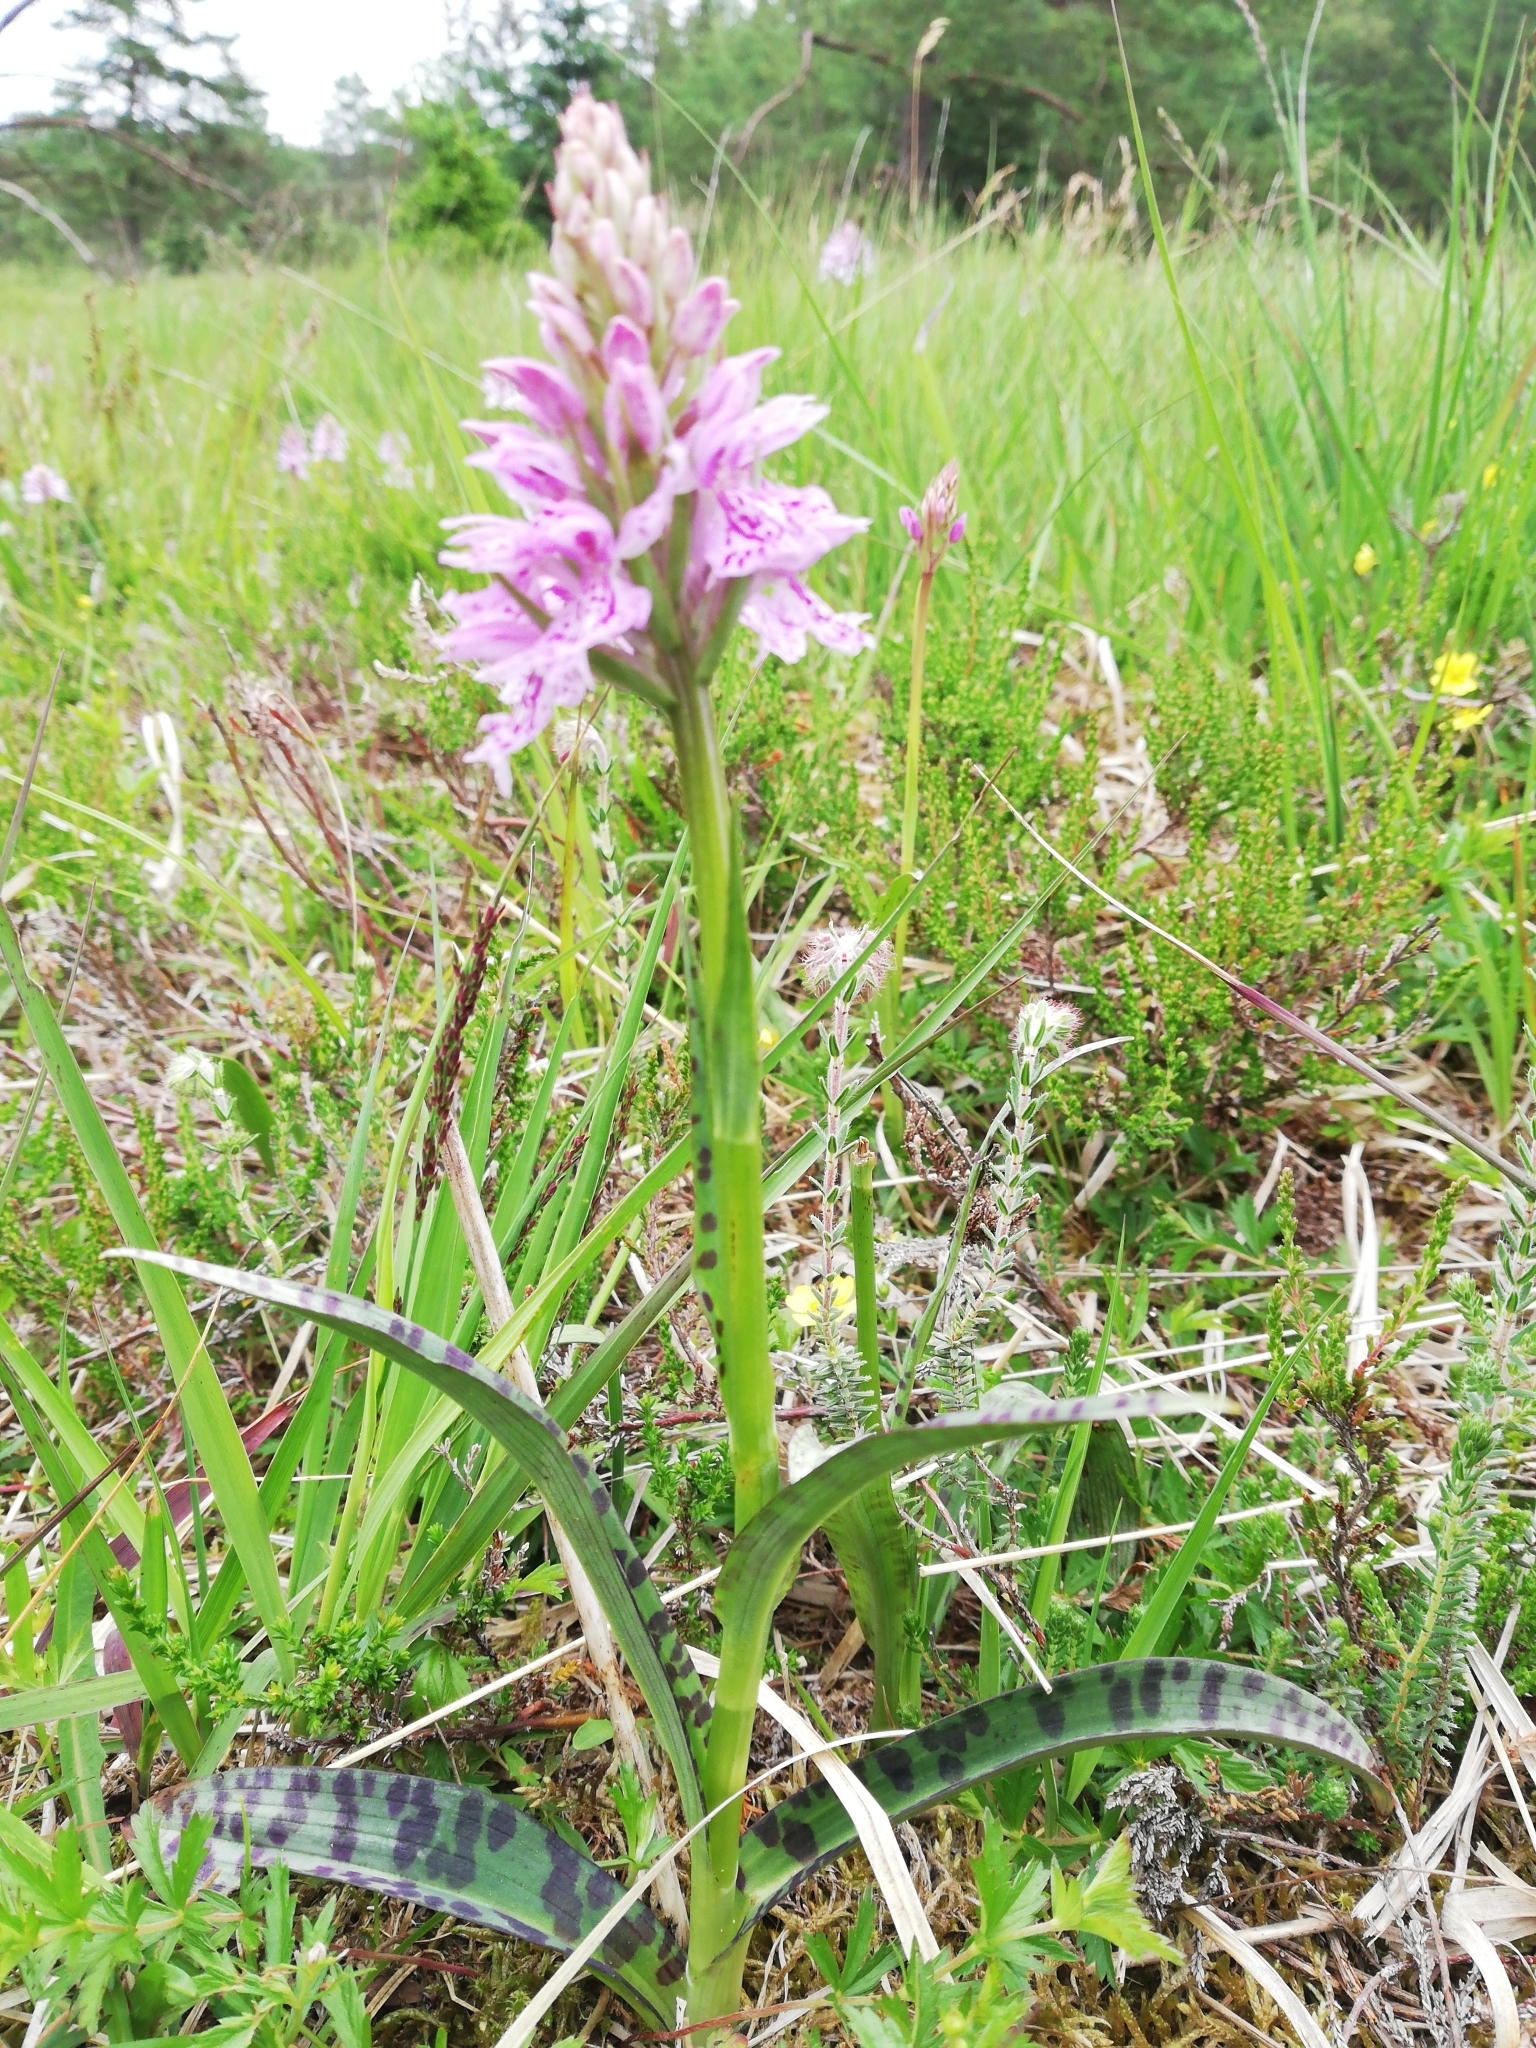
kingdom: Plantae
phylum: Tracheophyta
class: Liliopsida
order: Asparagales
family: Orchidaceae
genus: Dactylorhiza
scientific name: Dactylorhiza maculata
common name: Heath spotted-orchid
